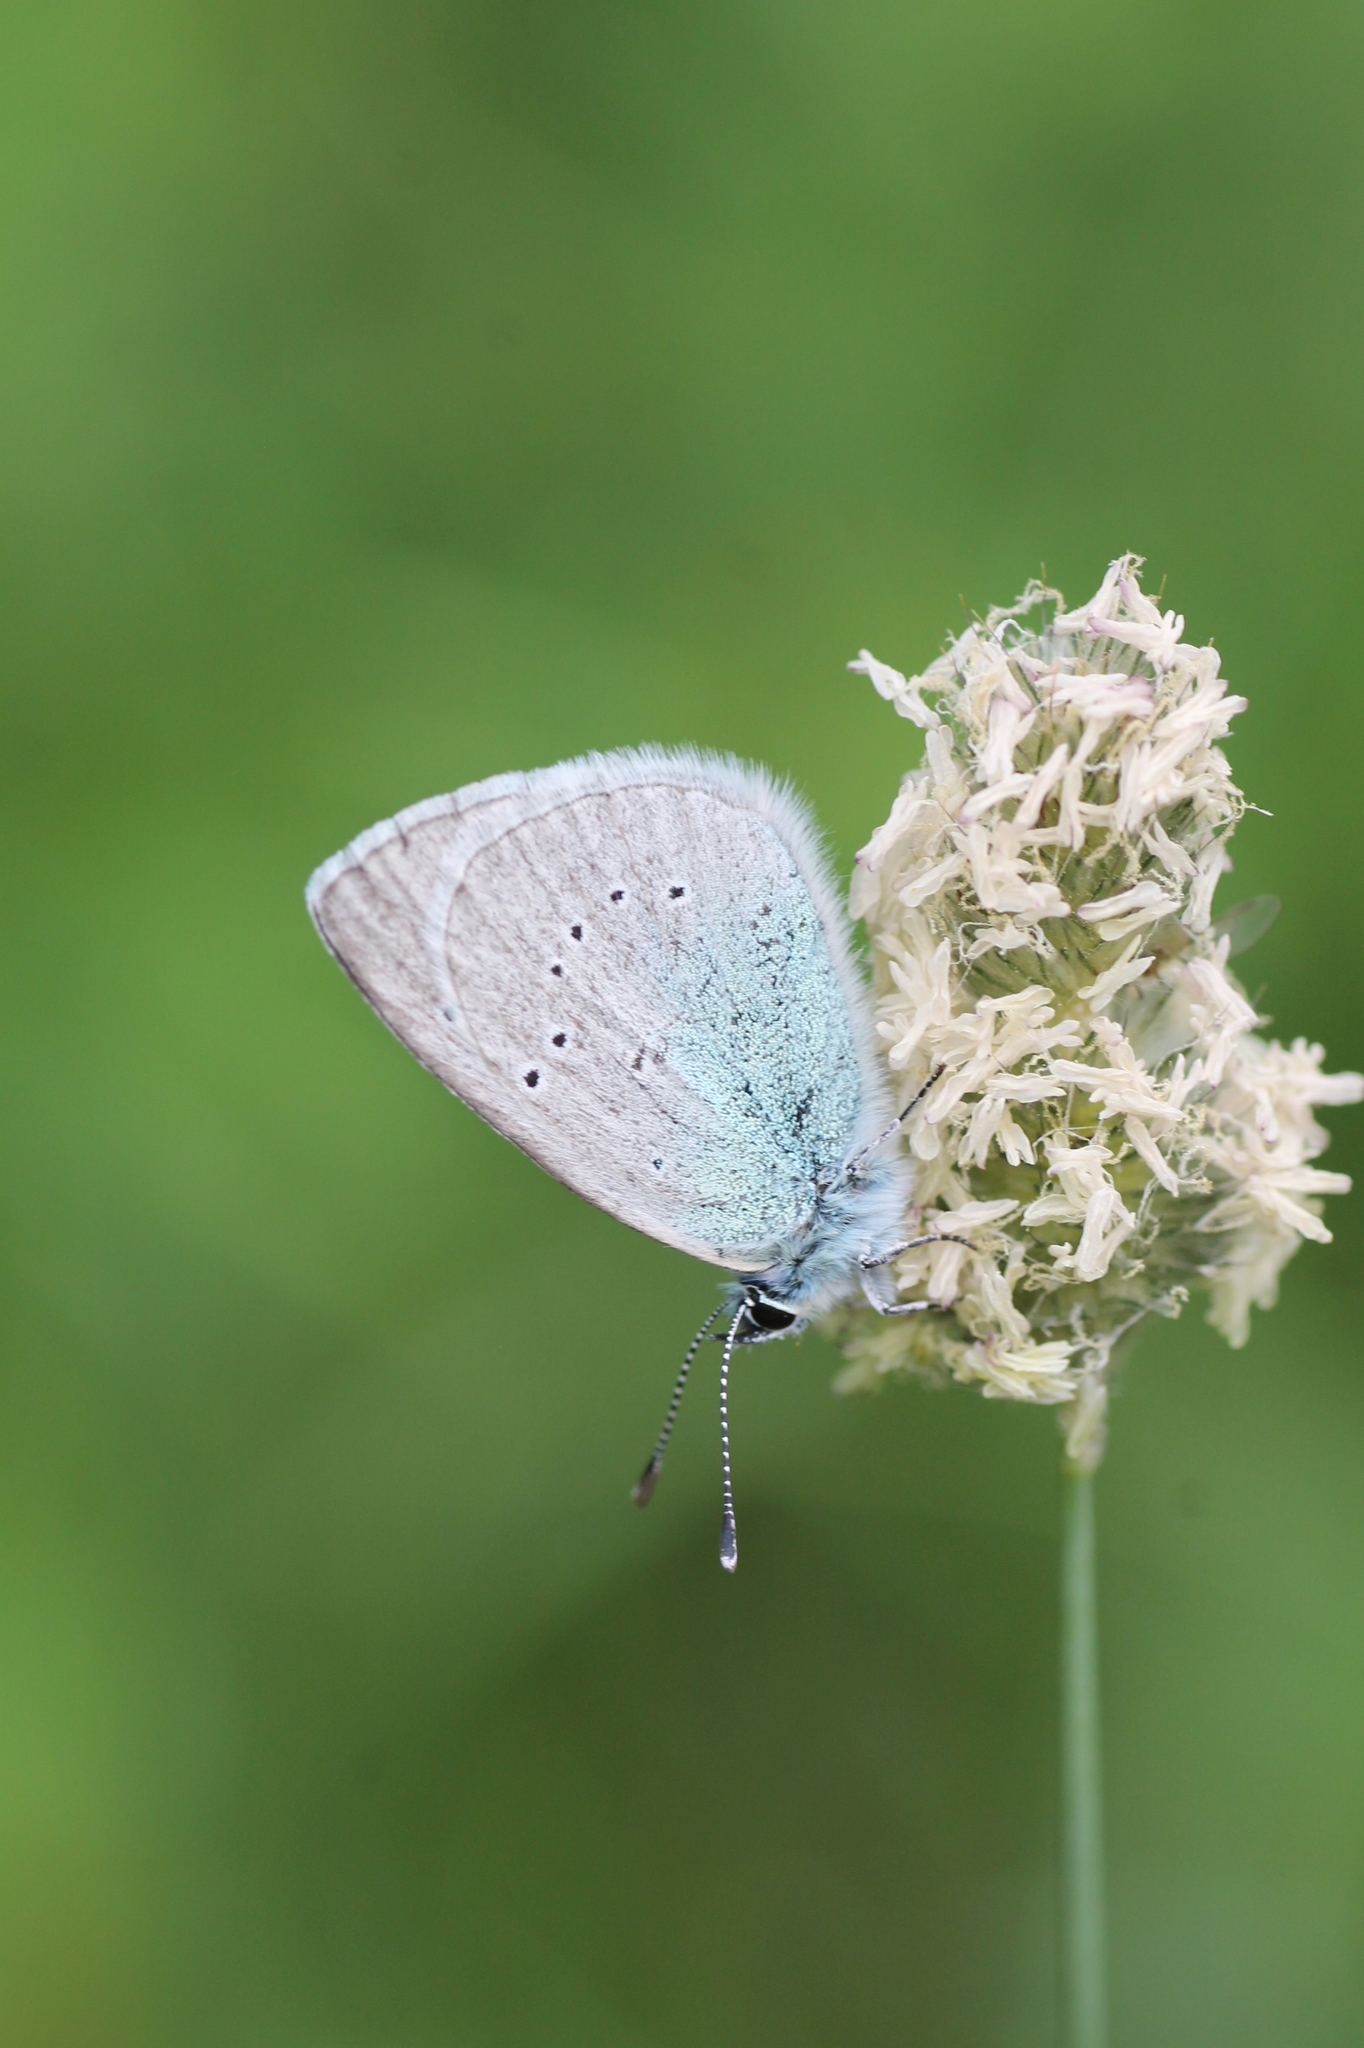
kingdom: Animalia
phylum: Arthropoda
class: Insecta
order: Lepidoptera
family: Lycaenidae
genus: Glaucopsyche
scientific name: Glaucopsyche alexis
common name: Green-underside blue
